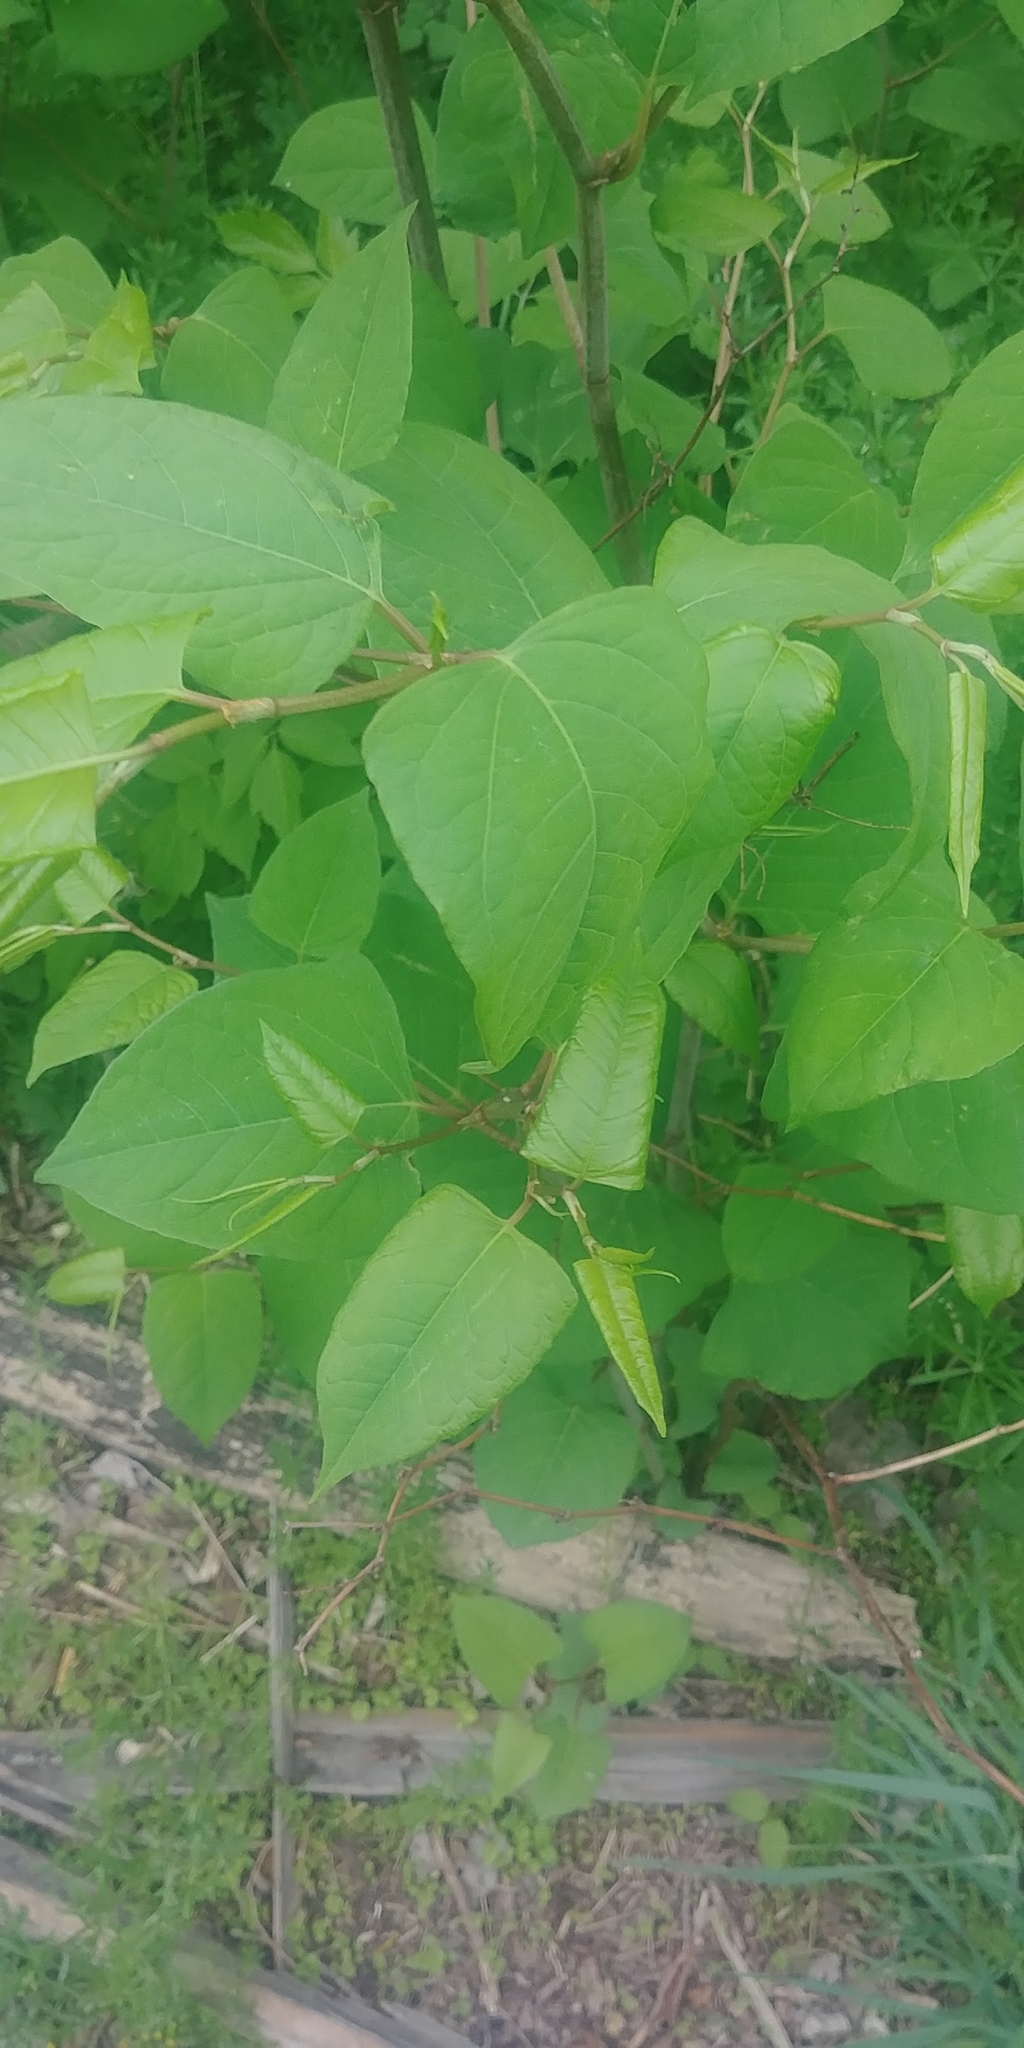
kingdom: Plantae
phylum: Tracheophyta
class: Magnoliopsida
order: Caryophyllales
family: Polygonaceae
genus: Reynoutria
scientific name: Reynoutria japonica
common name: Japanese knotweed
